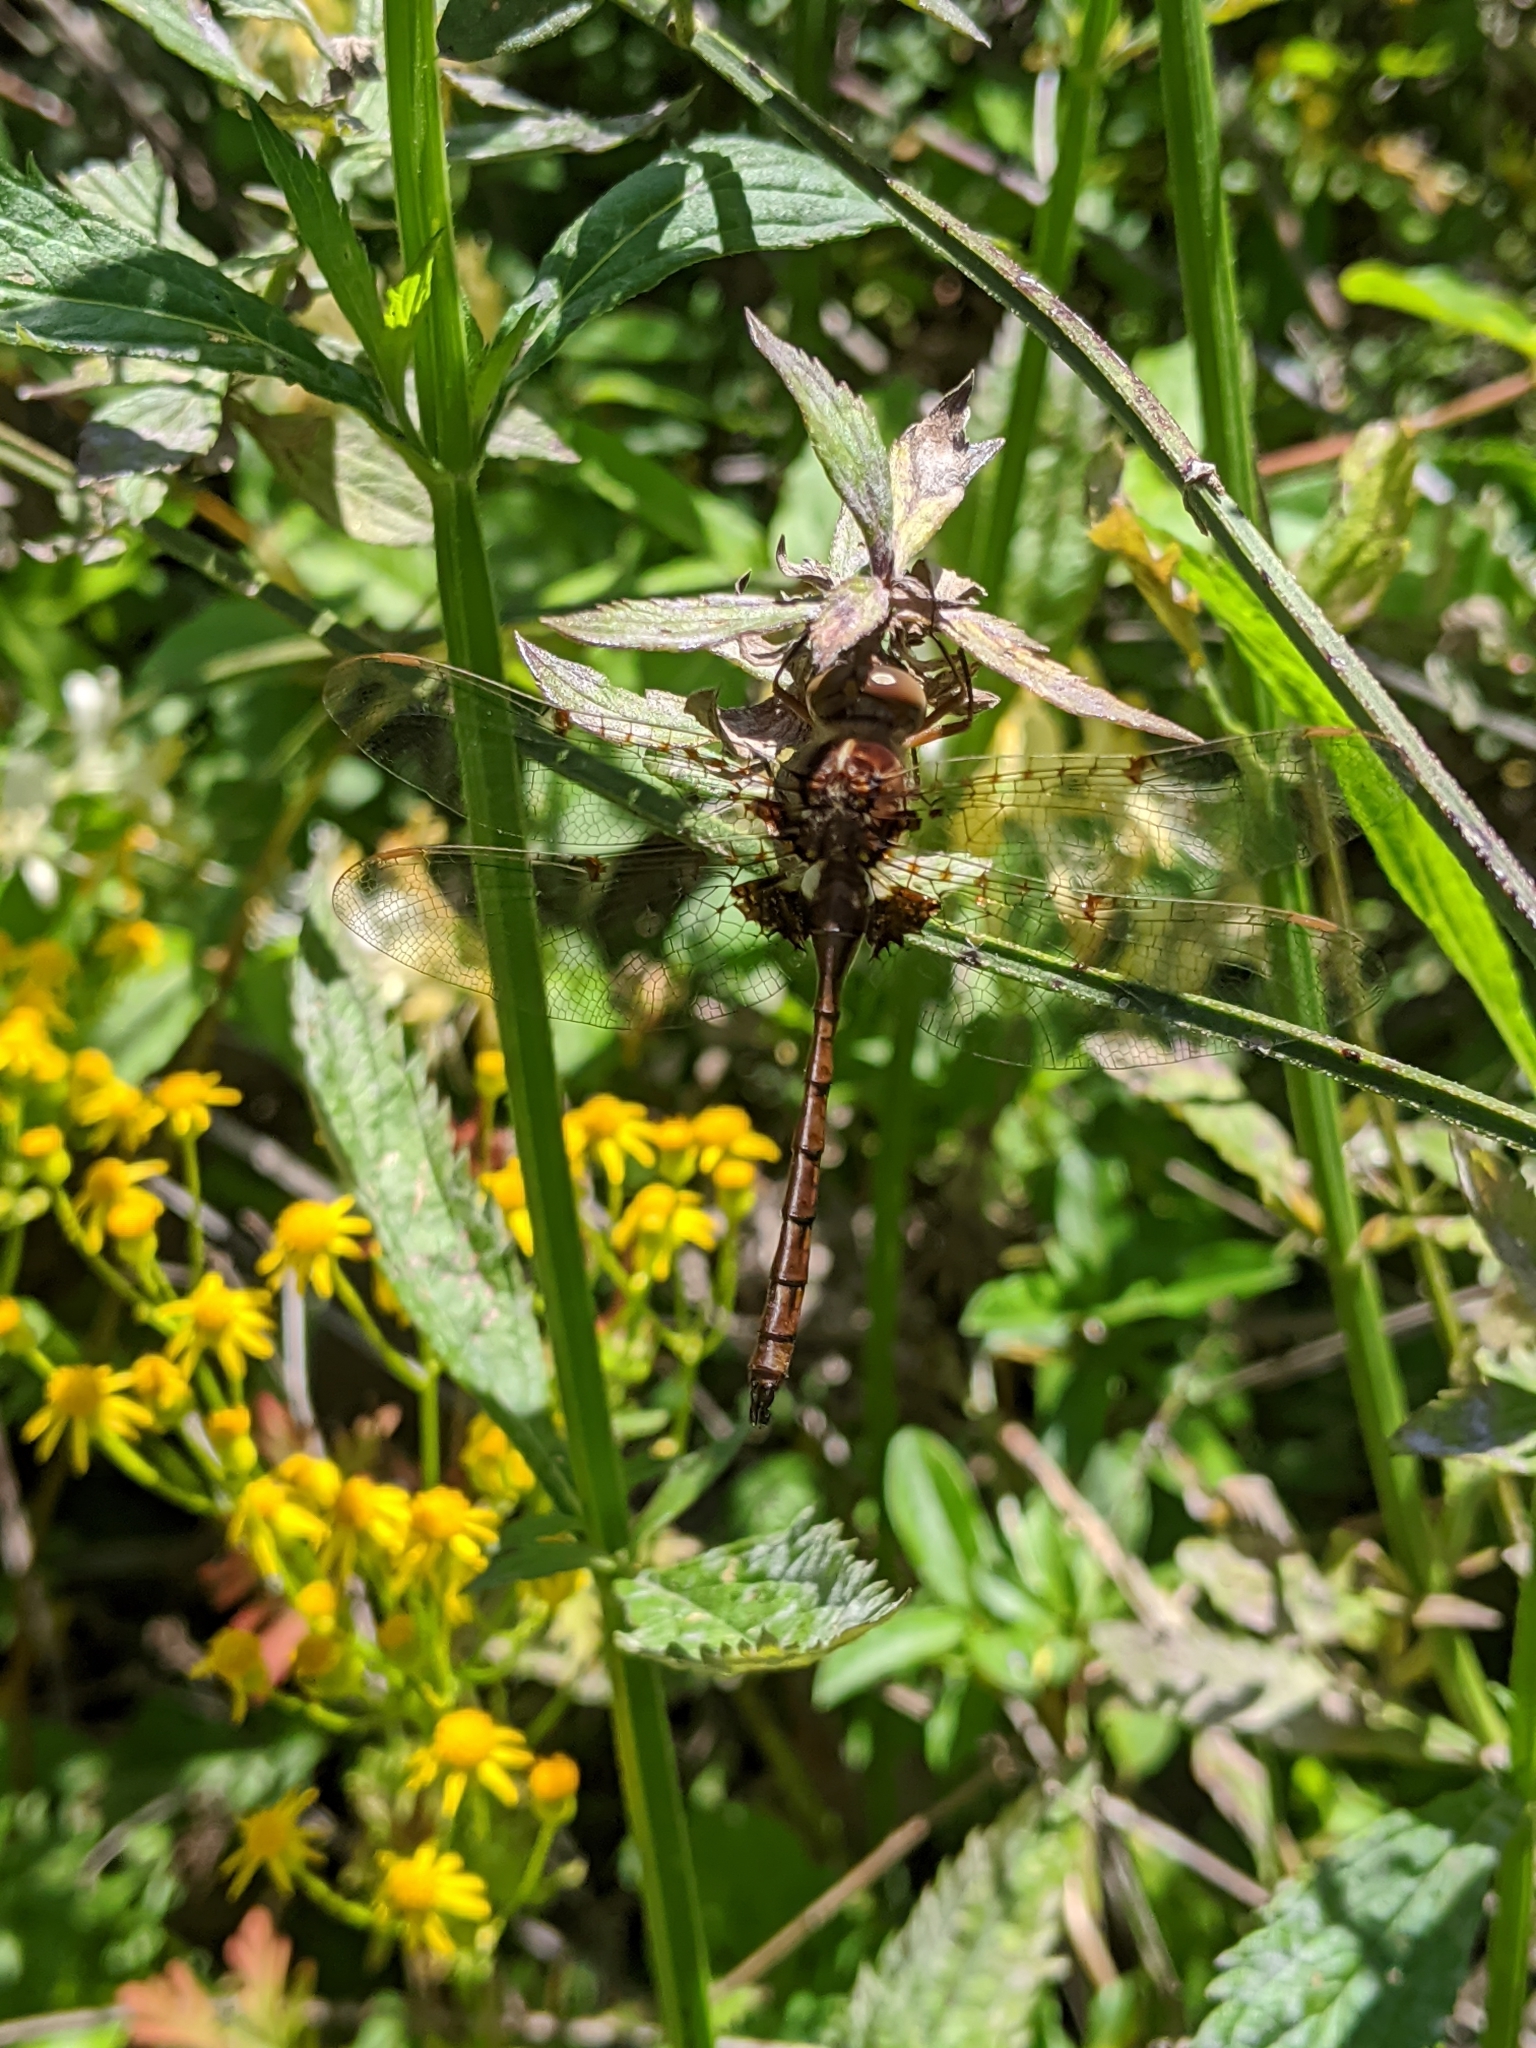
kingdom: Animalia
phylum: Arthropoda
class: Insecta
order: Odonata
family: Corduliidae
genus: Neurocordulia
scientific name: Neurocordulia obsoleta
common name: Umber shadowdragon
